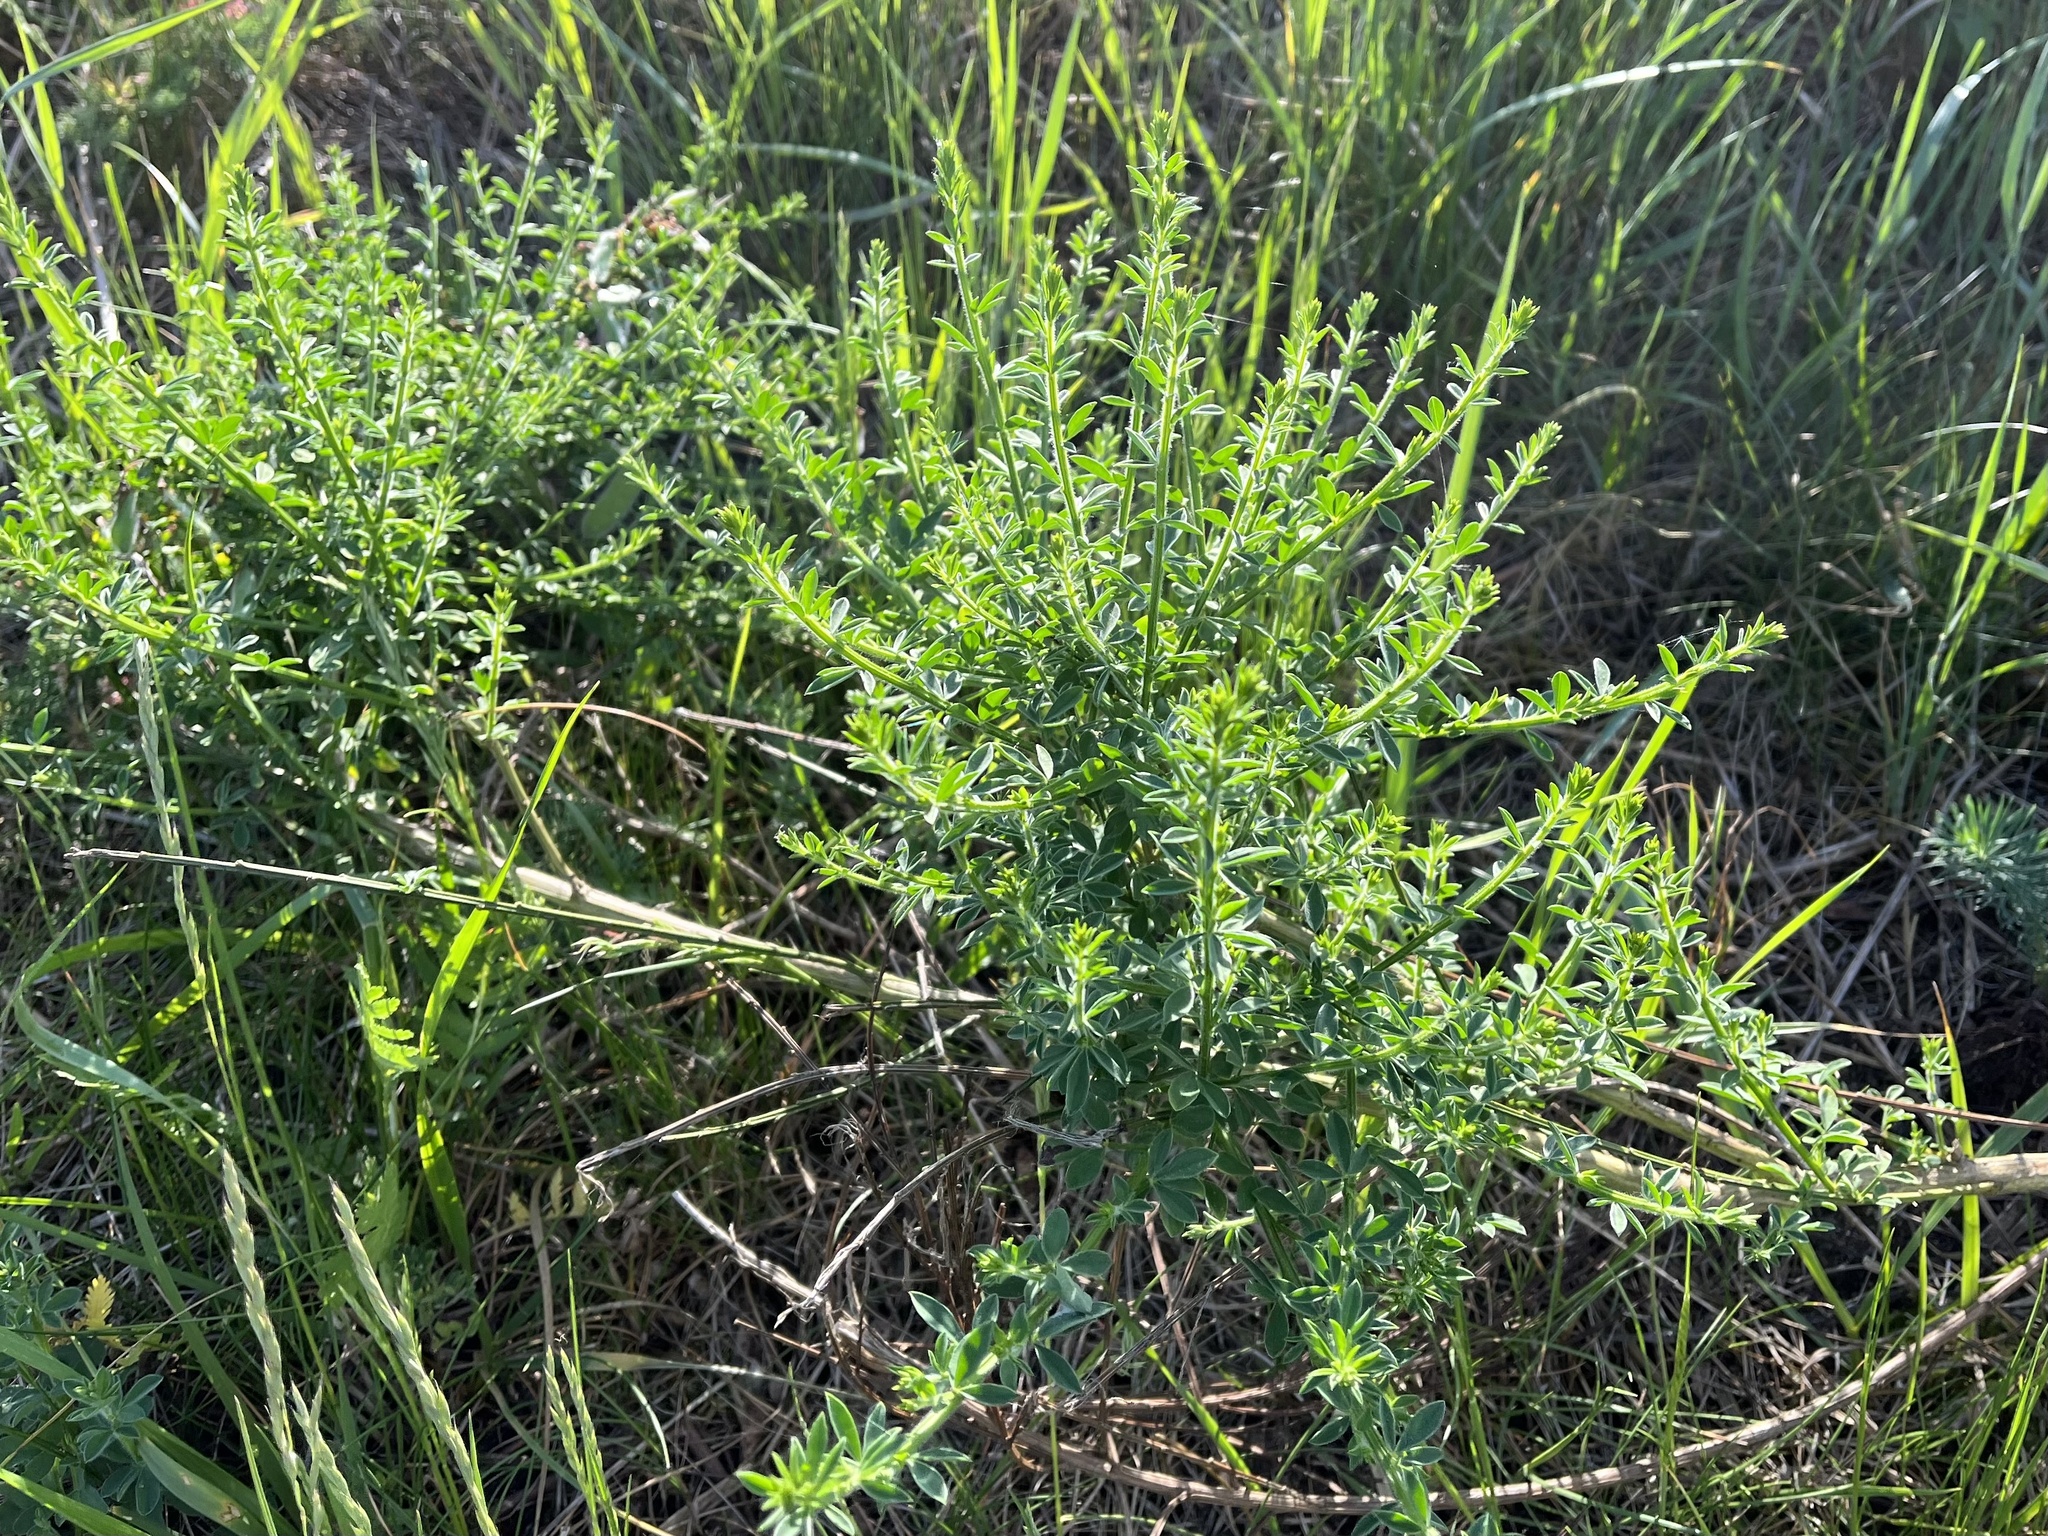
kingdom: Plantae
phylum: Tracheophyta
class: Magnoliopsida
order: Fabales
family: Fabaceae
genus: Cytisus
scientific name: Cytisus scoparius
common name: Scotch broom
